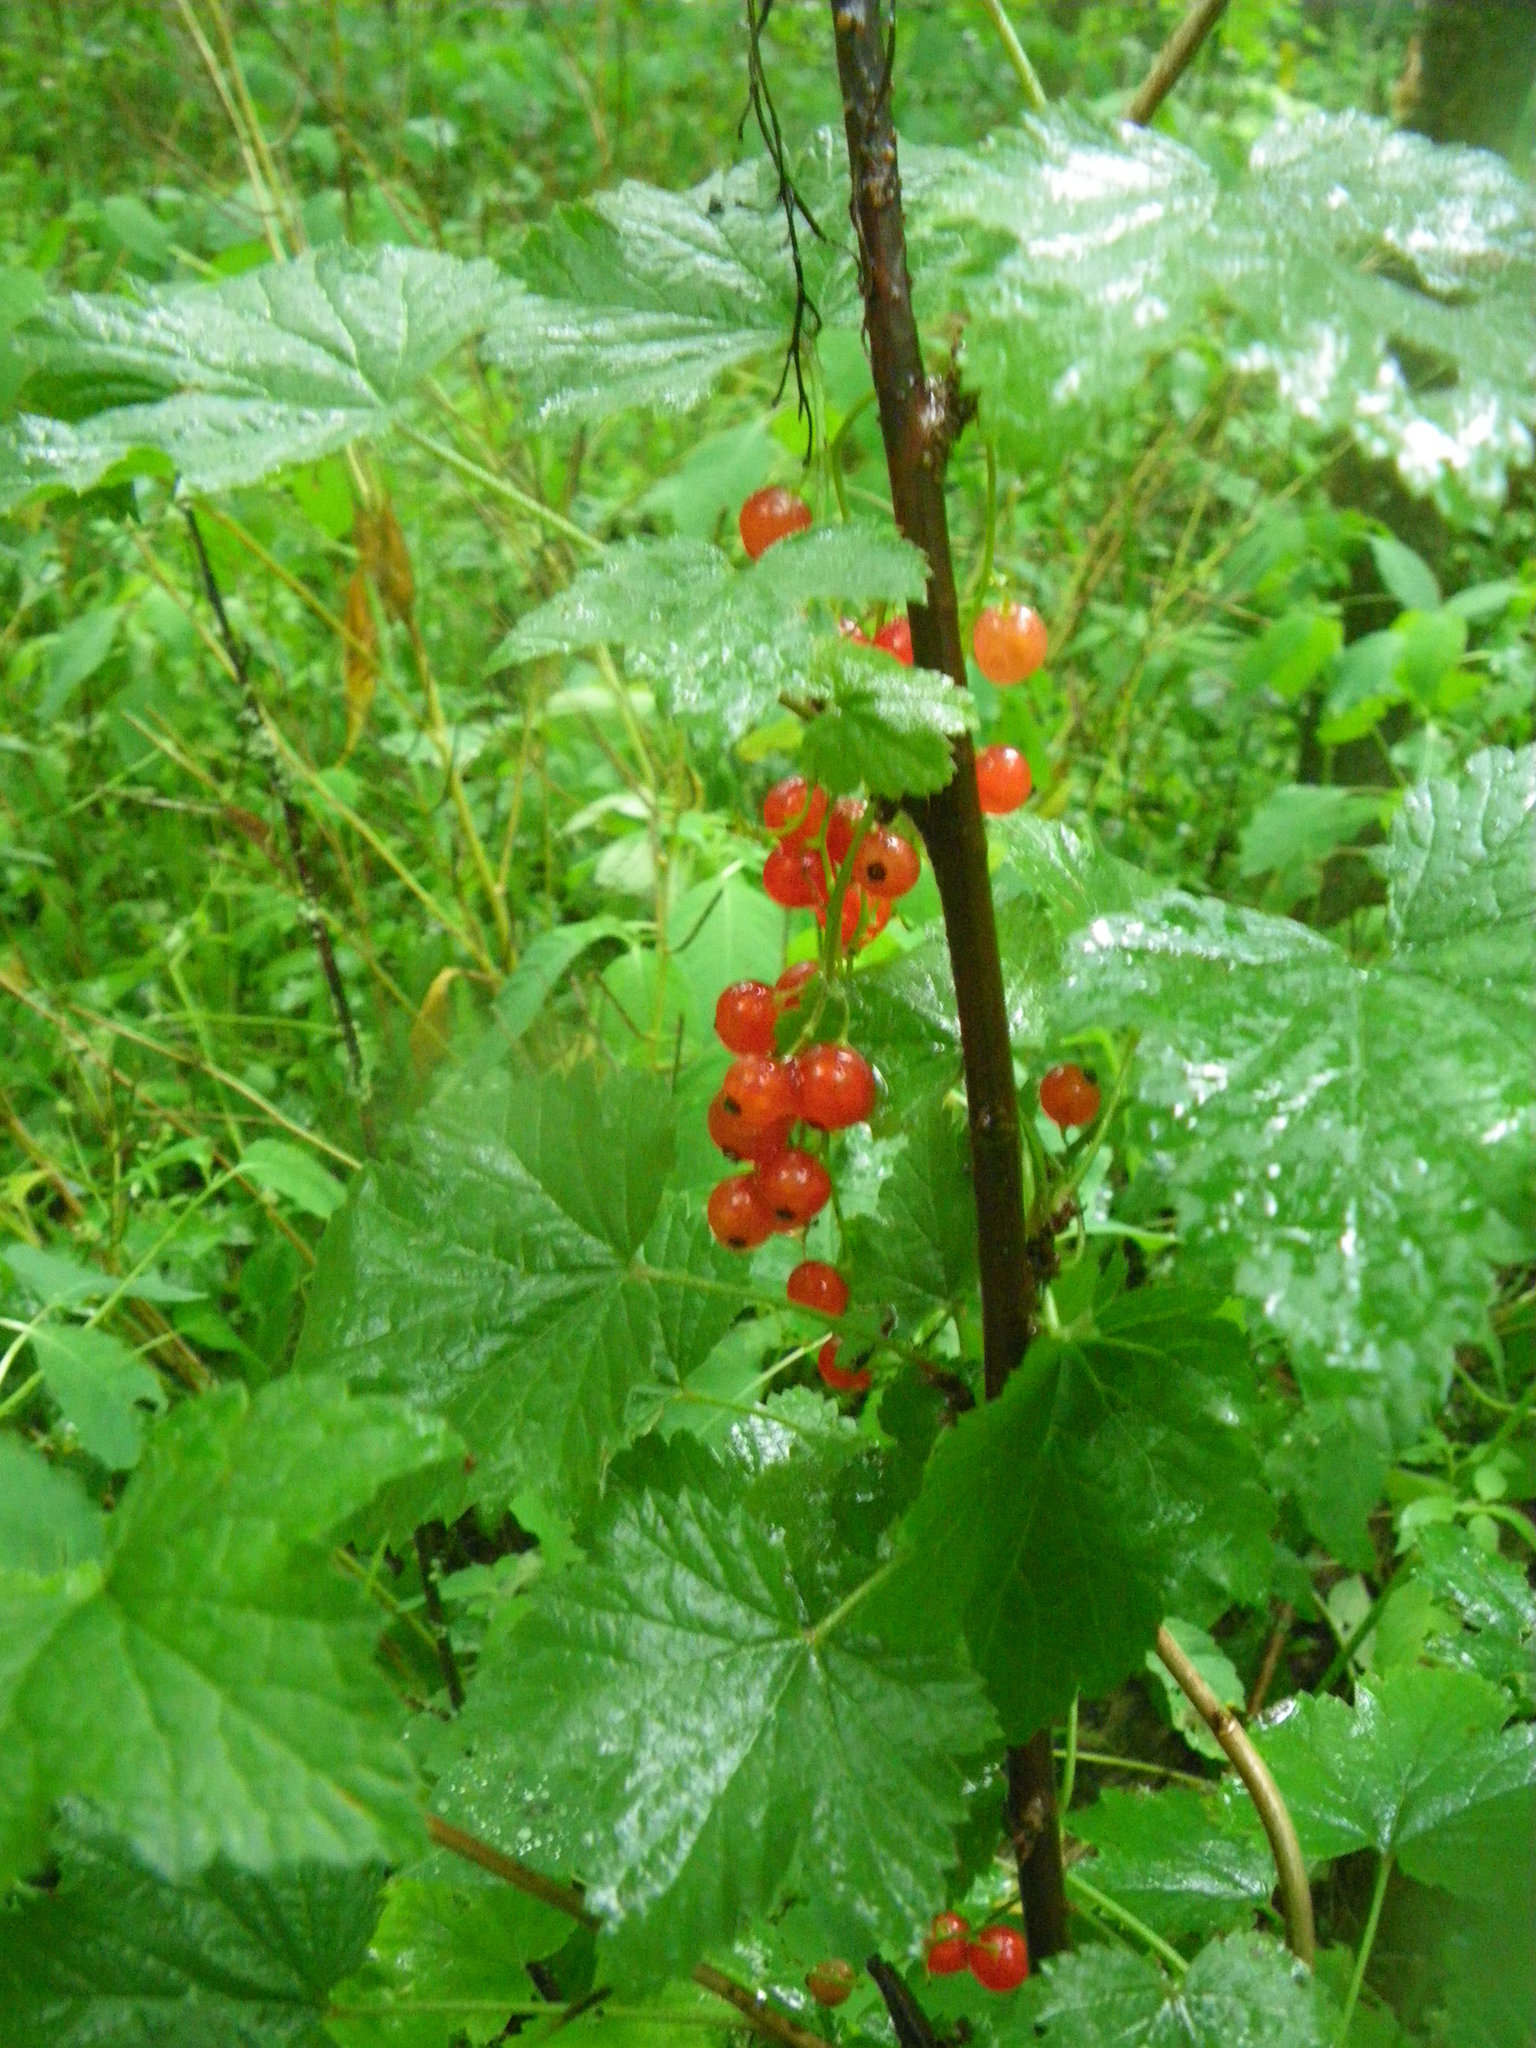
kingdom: Plantae
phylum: Tracheophyta
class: Magnoliopsida
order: Saxifragales
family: Grossulariaceae
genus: Ribes
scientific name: Ribes rubrum
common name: Red currant
